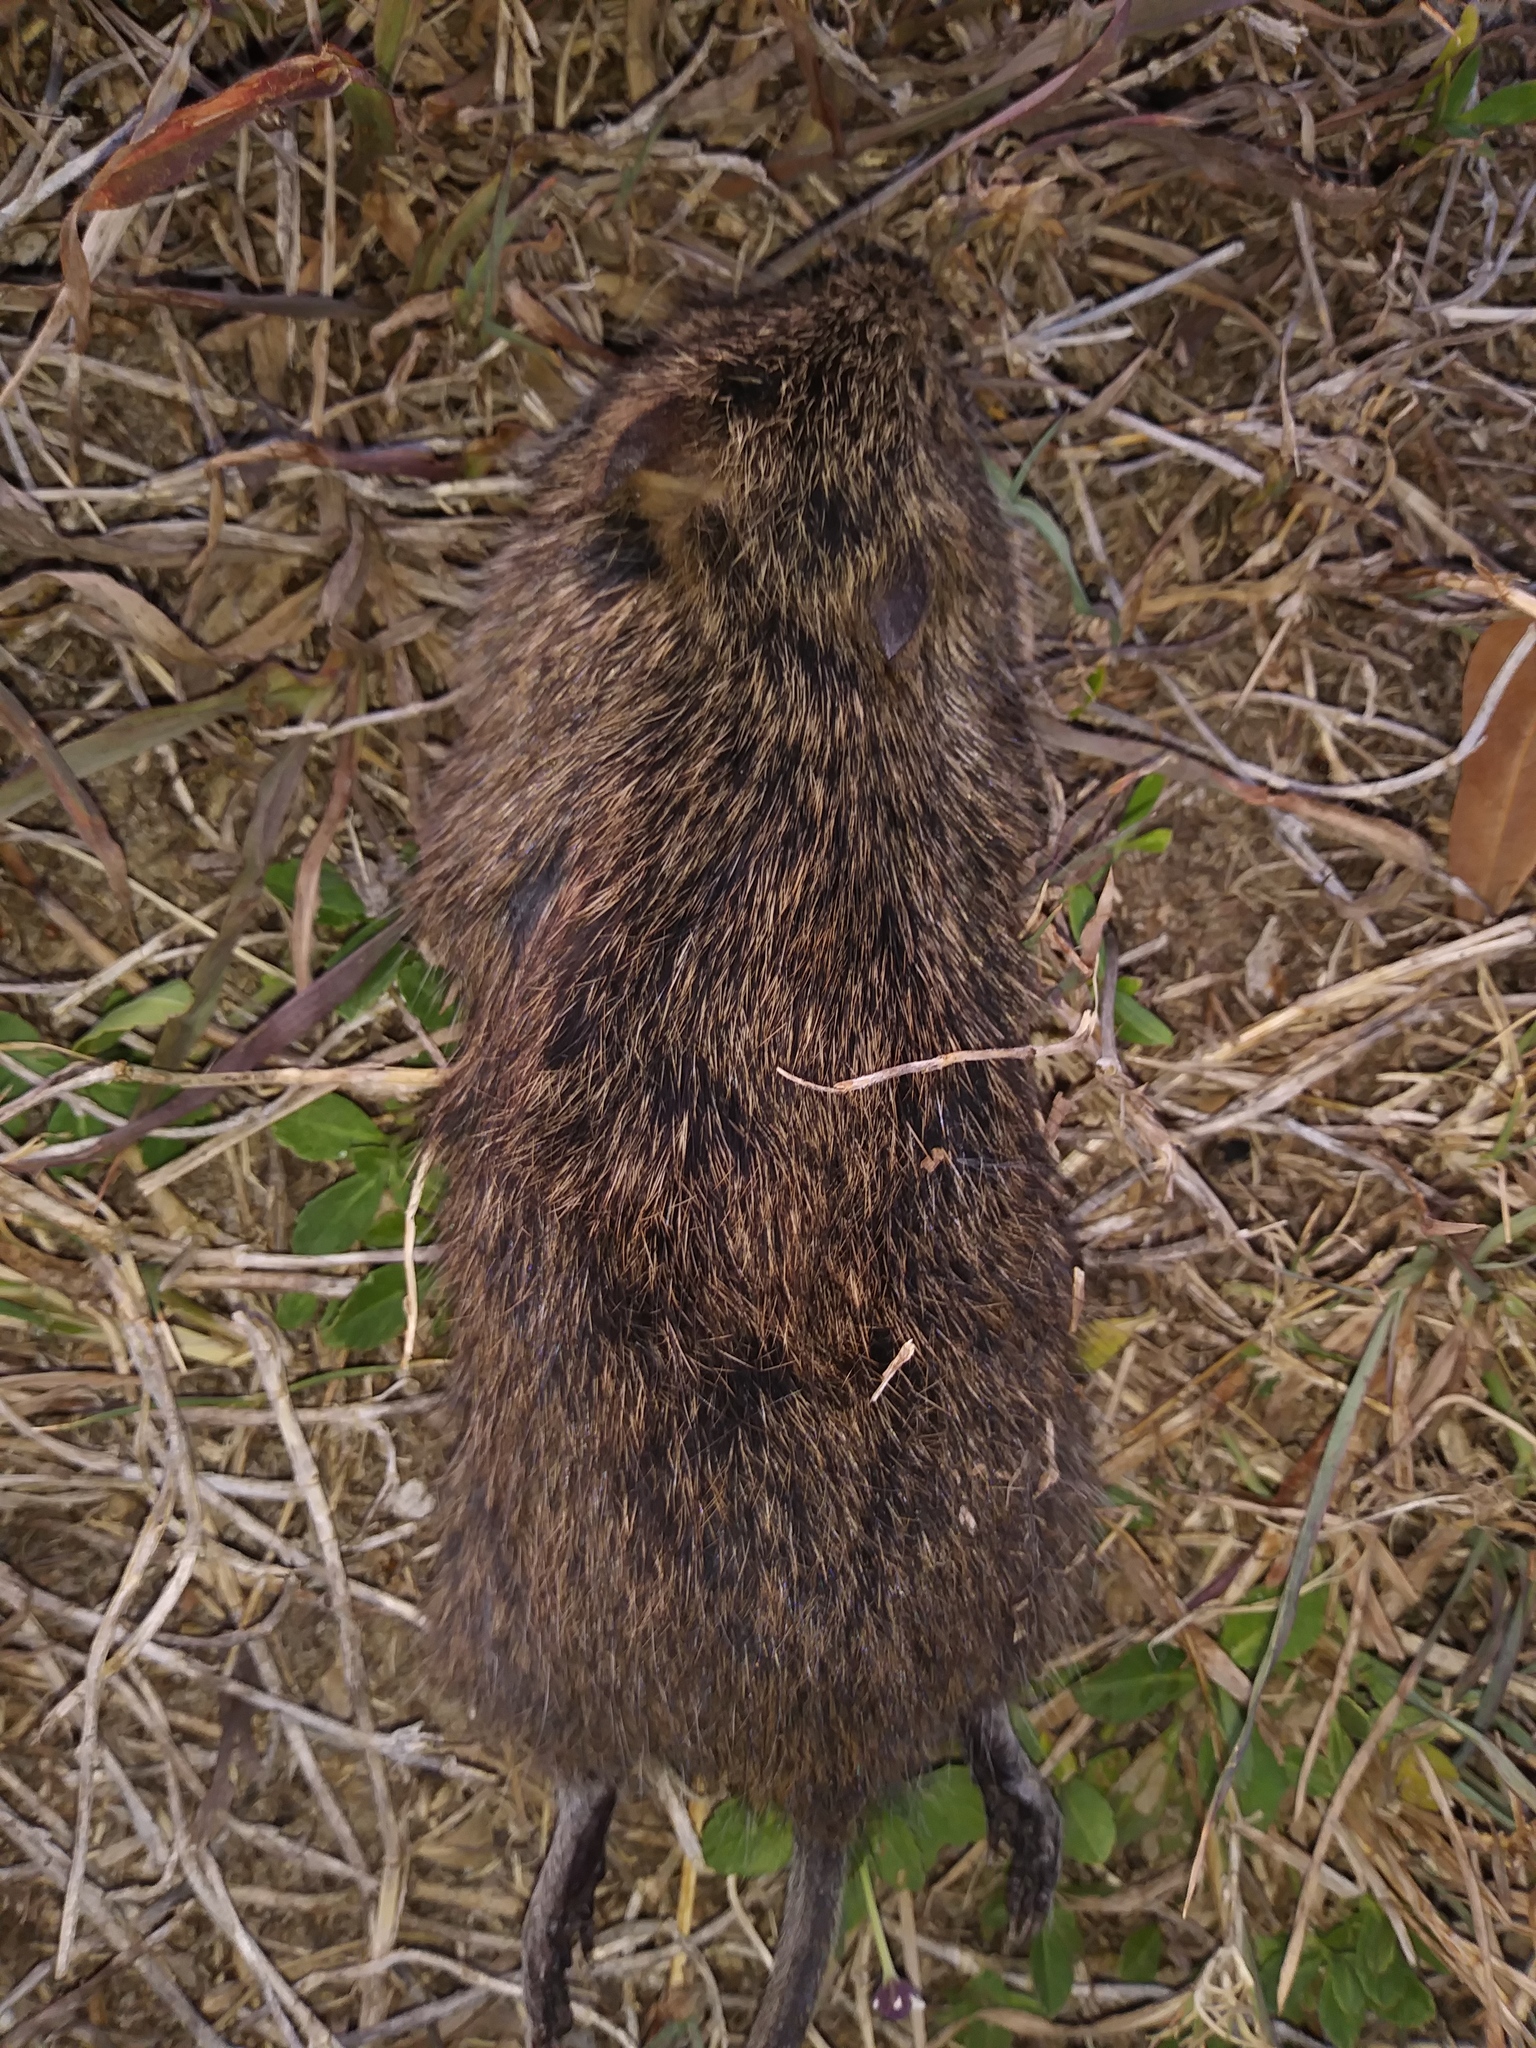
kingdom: Animalia
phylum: Chordata
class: Mammalia
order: Rodentia
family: Cricetidae
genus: Sigmodon
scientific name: Sigmodon hispidus
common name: Hispid cotton rat
